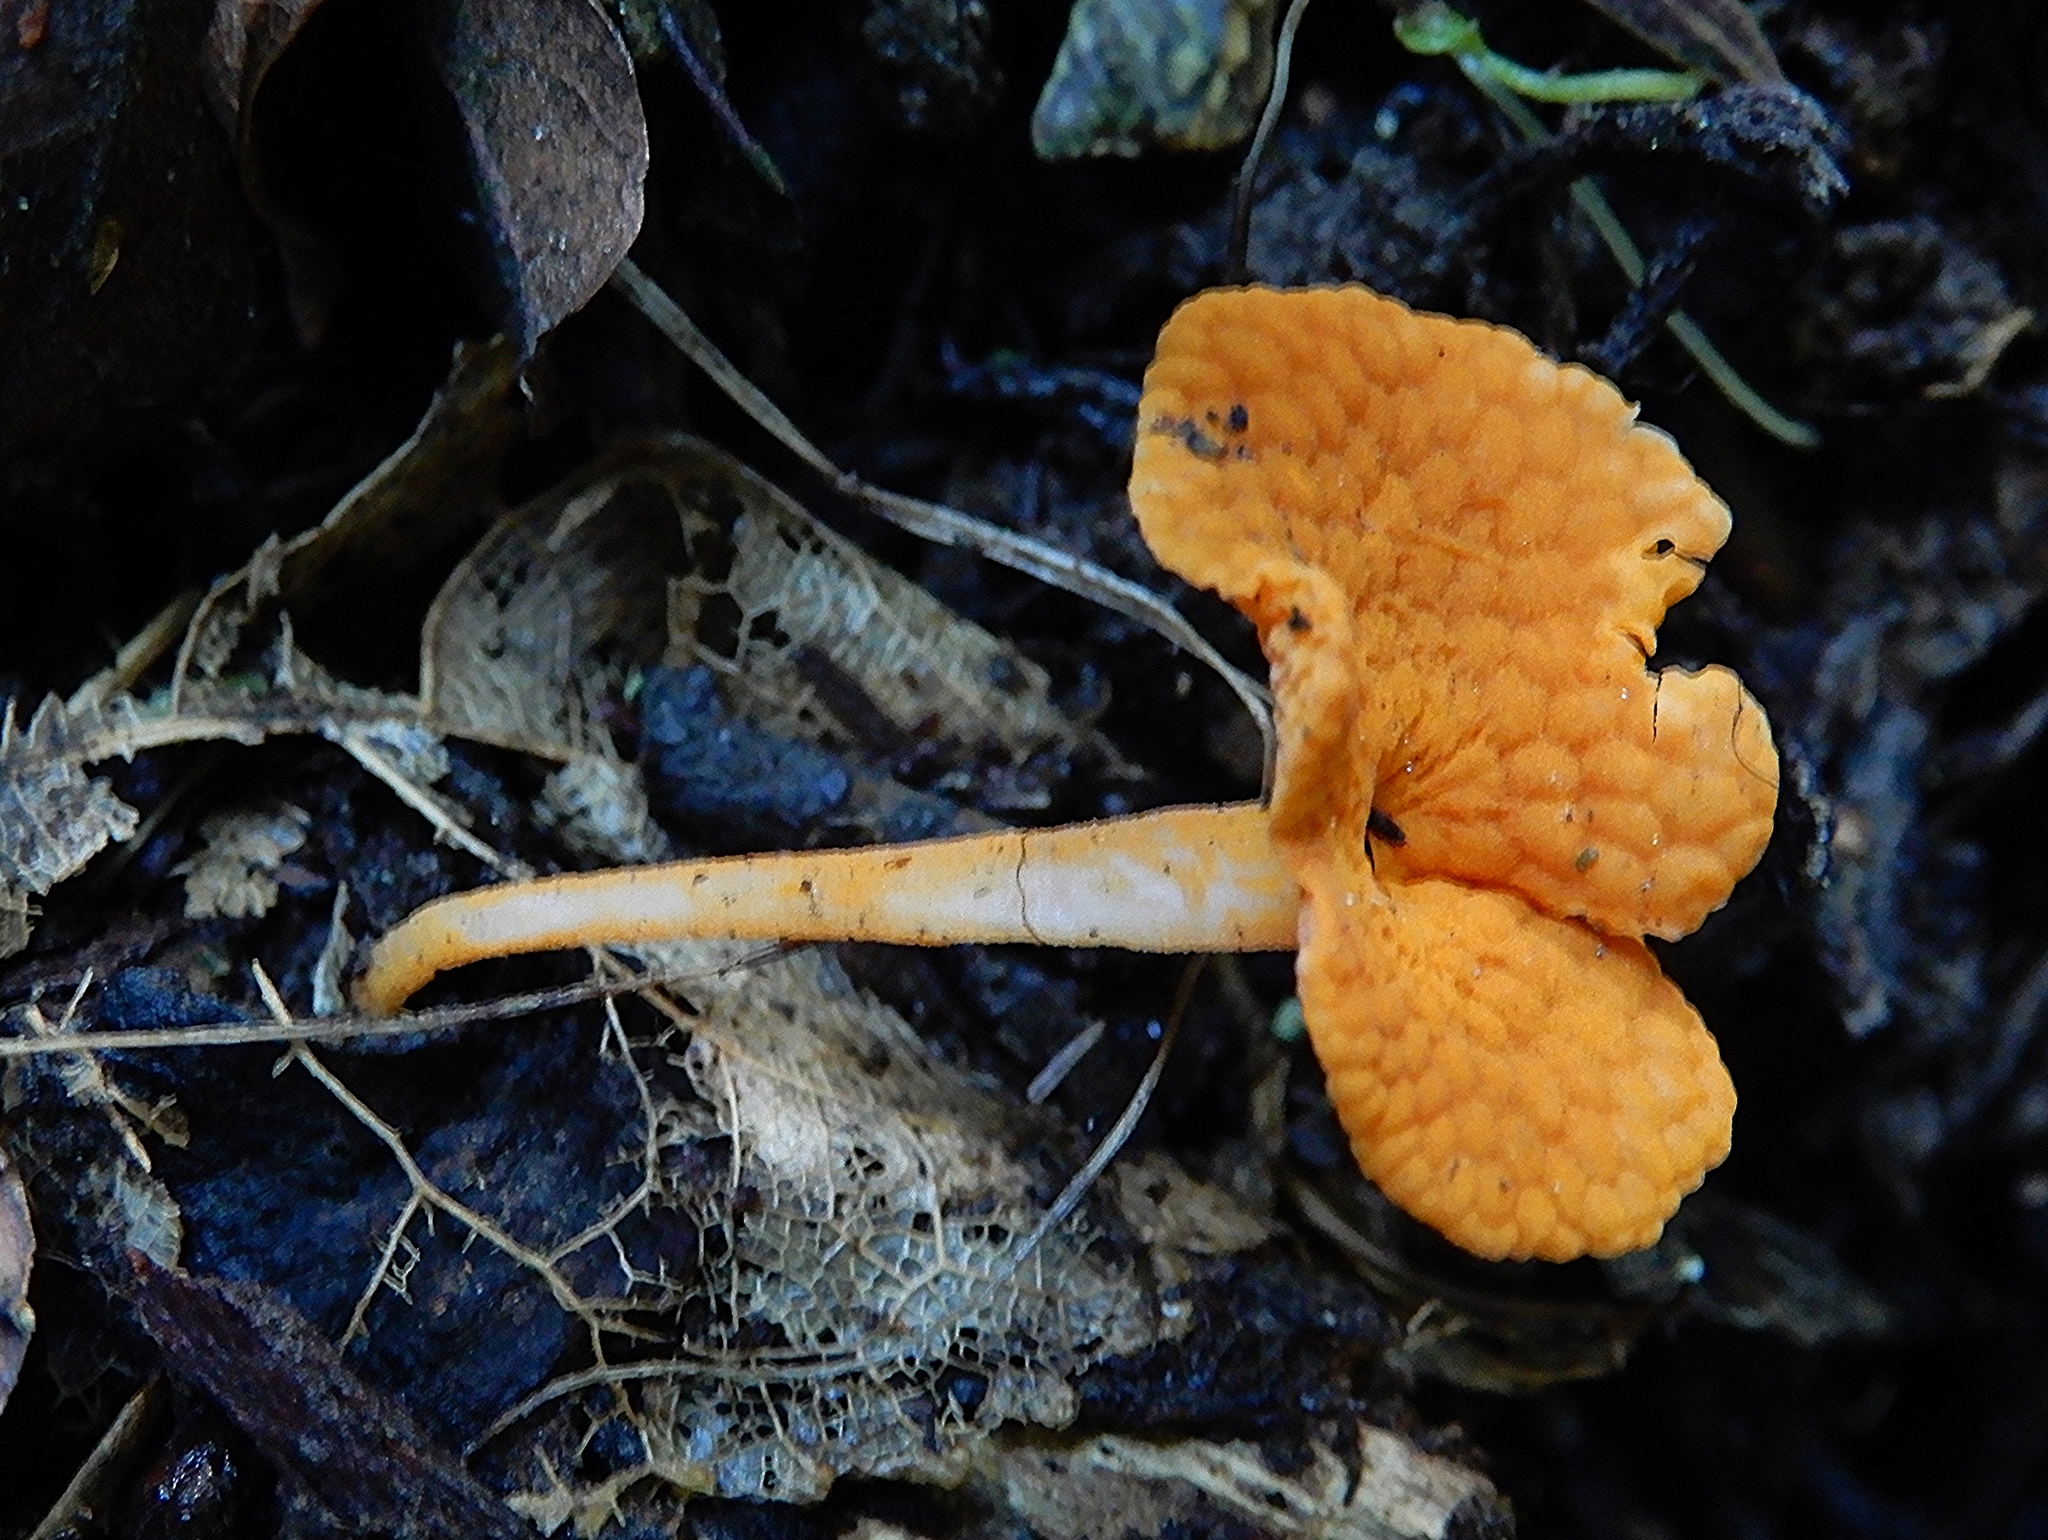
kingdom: Fungi
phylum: Basidiomycota
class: Agaricomycetes
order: Agaricales
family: Mycenaceae
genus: Favolaschia
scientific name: Favolaschia claudopus
